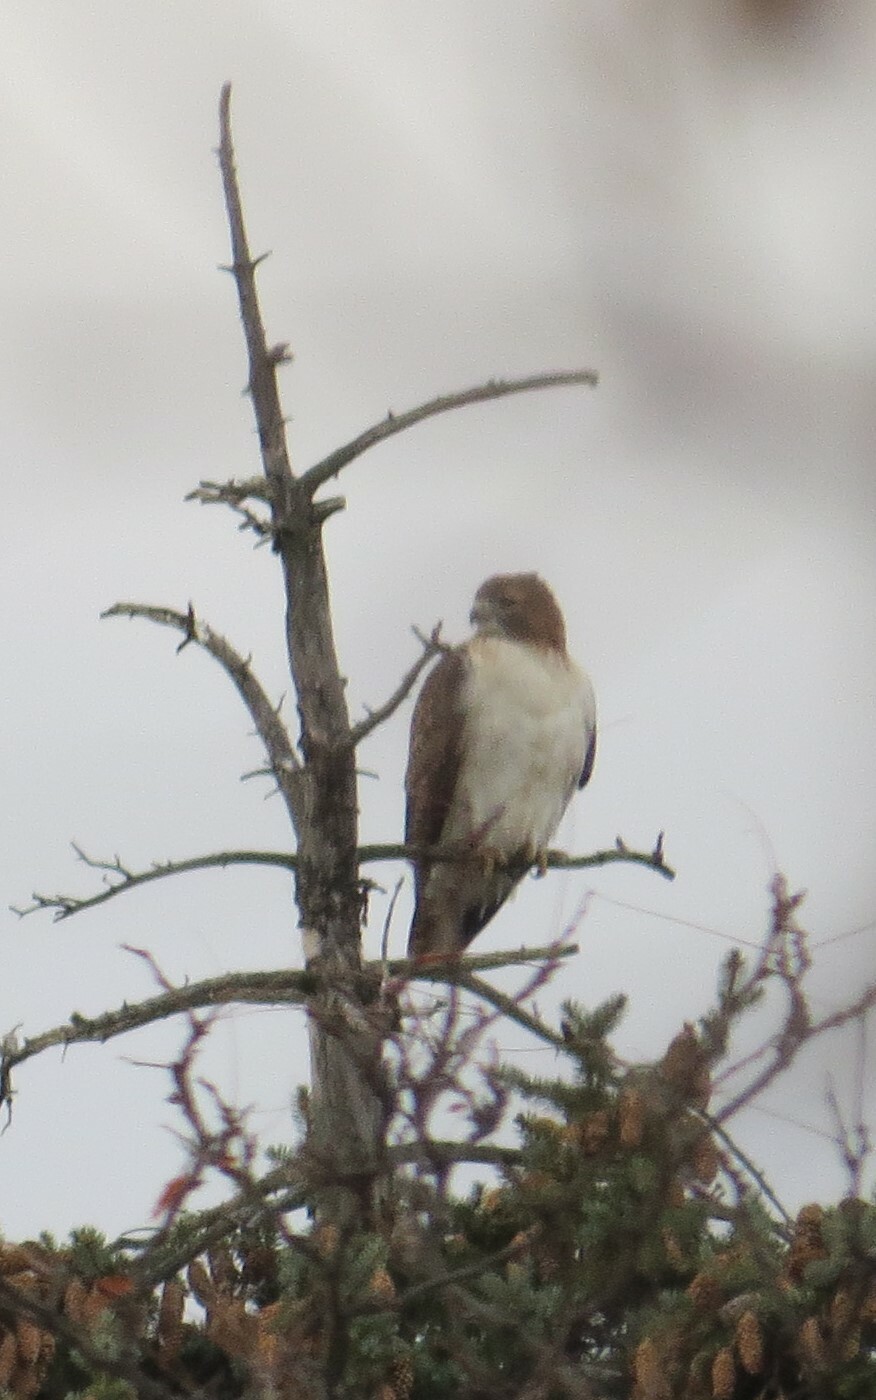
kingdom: Animalia
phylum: Chordata
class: Aves
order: Accipitriformes
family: Accipitridae
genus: Buteo
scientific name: Buteo jamaicensis
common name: Red-tailed hawk
